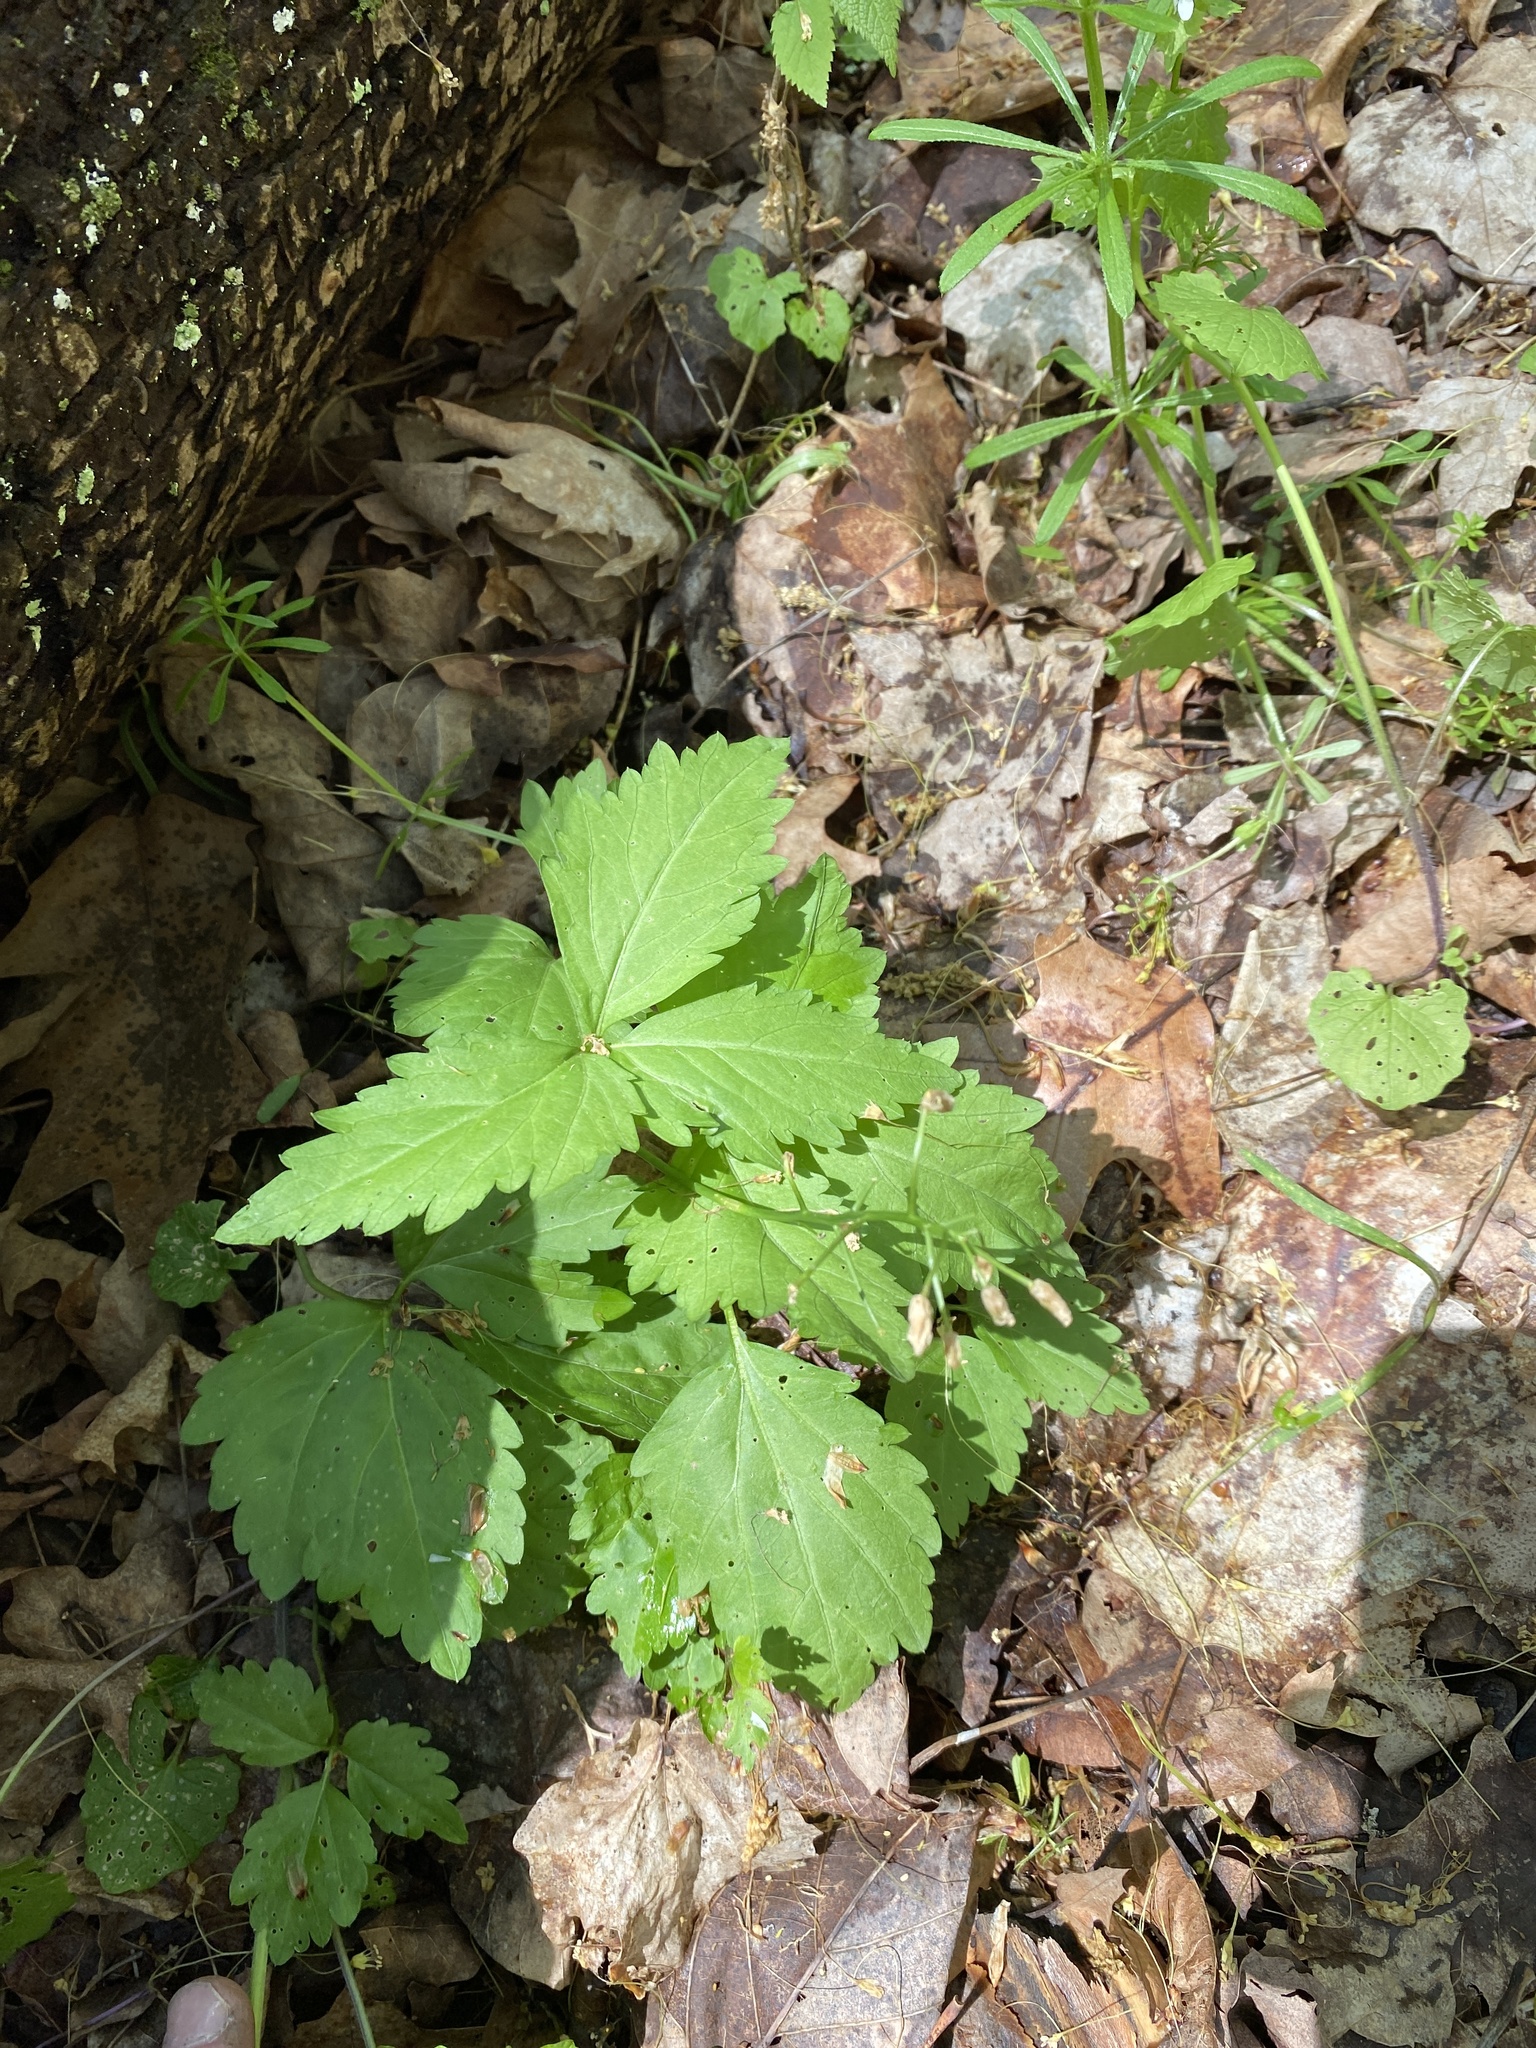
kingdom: Plantae
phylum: Tracheophyta
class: Magnoliopsida
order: Brassicales
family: Brassicaceae
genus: Cardamine
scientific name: Cardamine diphylla
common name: Broad-leaved toothwort
